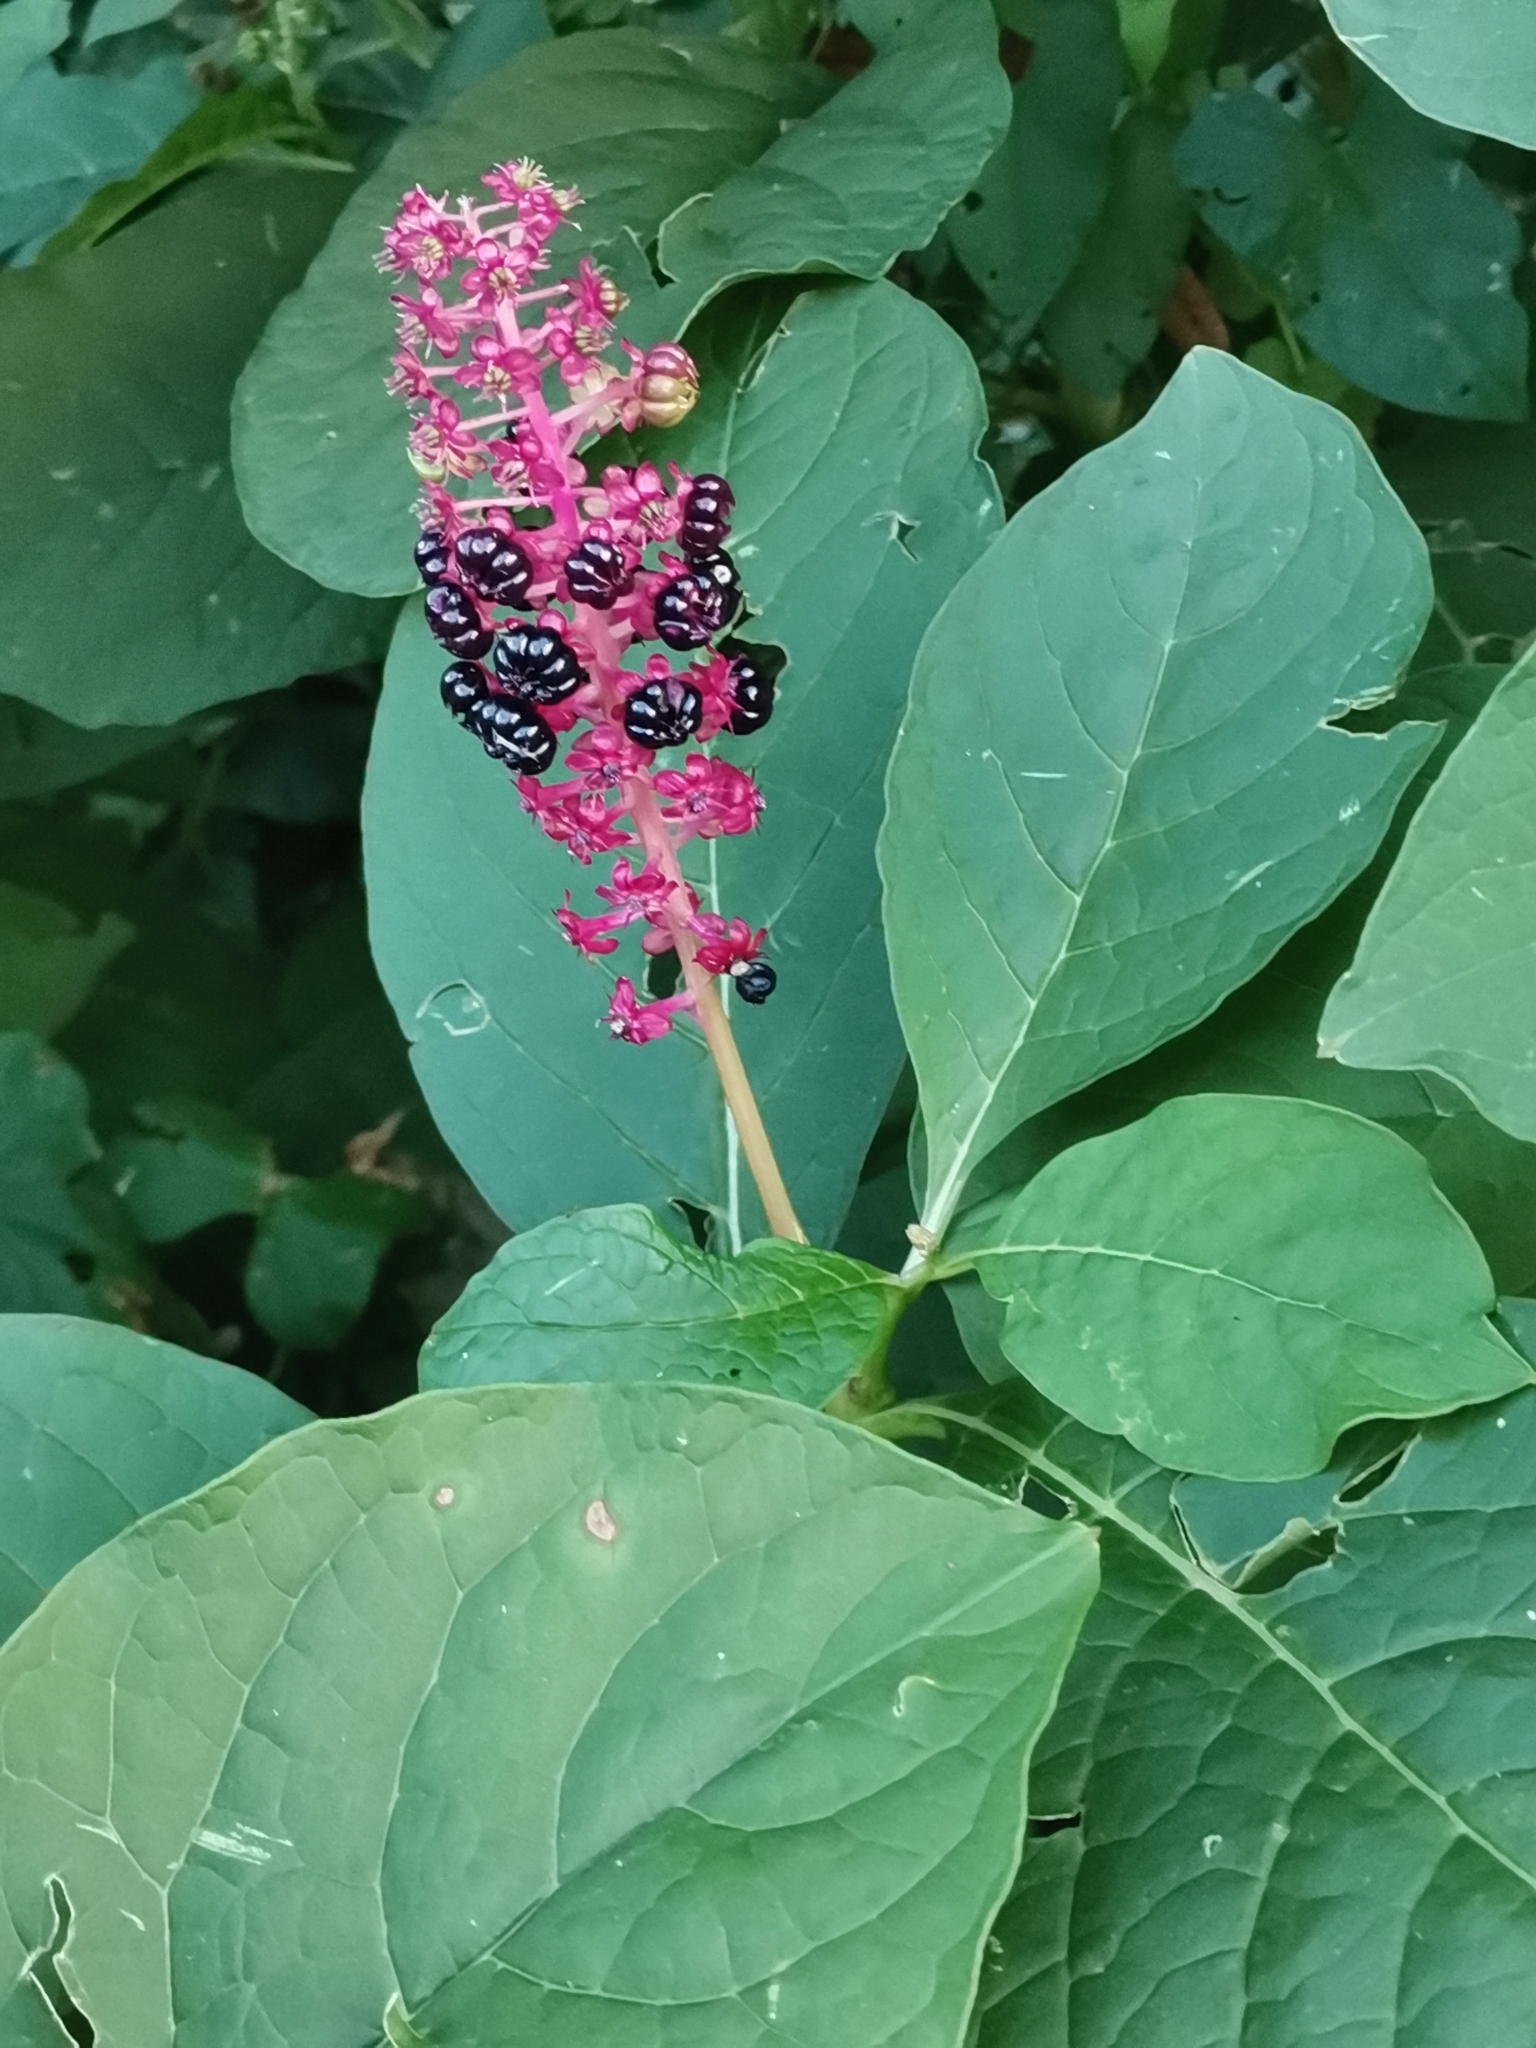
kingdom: Plantae
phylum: Tracheophyta
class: Magnoliopsida
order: Caryophyllales
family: Phytolaccaceae
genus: Phytolacca
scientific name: Phytolacca acinosa
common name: Indian pokeweed
